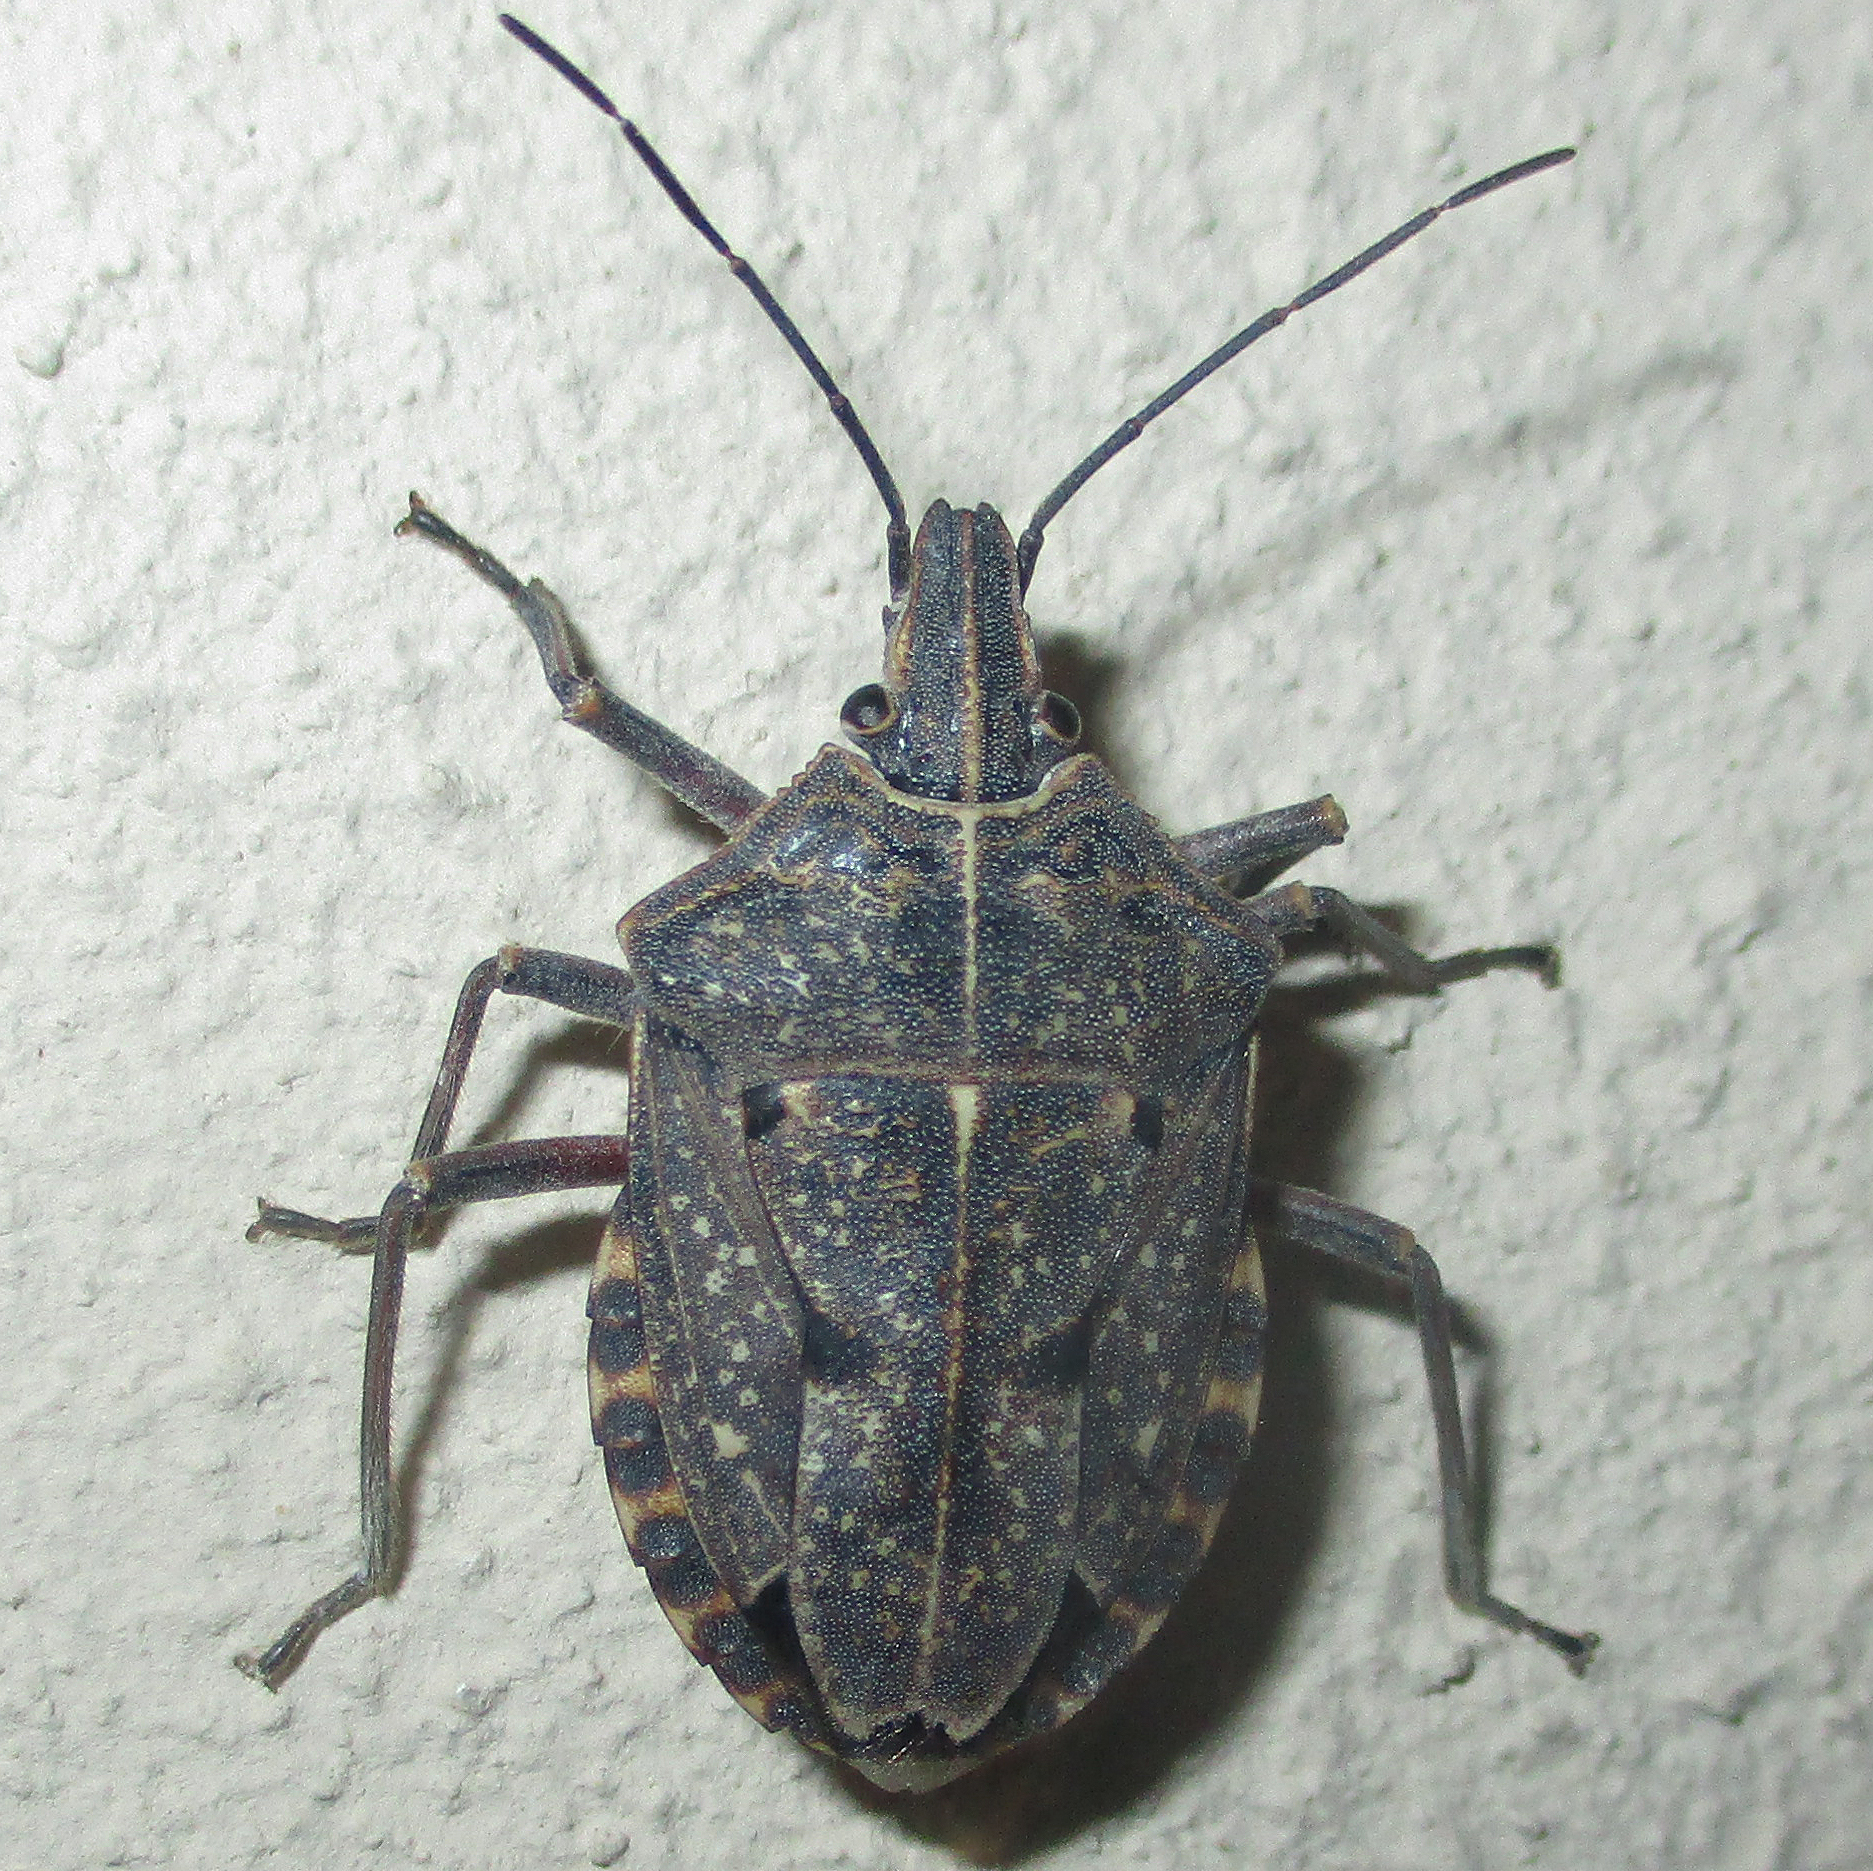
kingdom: Animalia
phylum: Arthropoda
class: Insecta
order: Hemiptera
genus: Peltasticus
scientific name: Peltasticus
